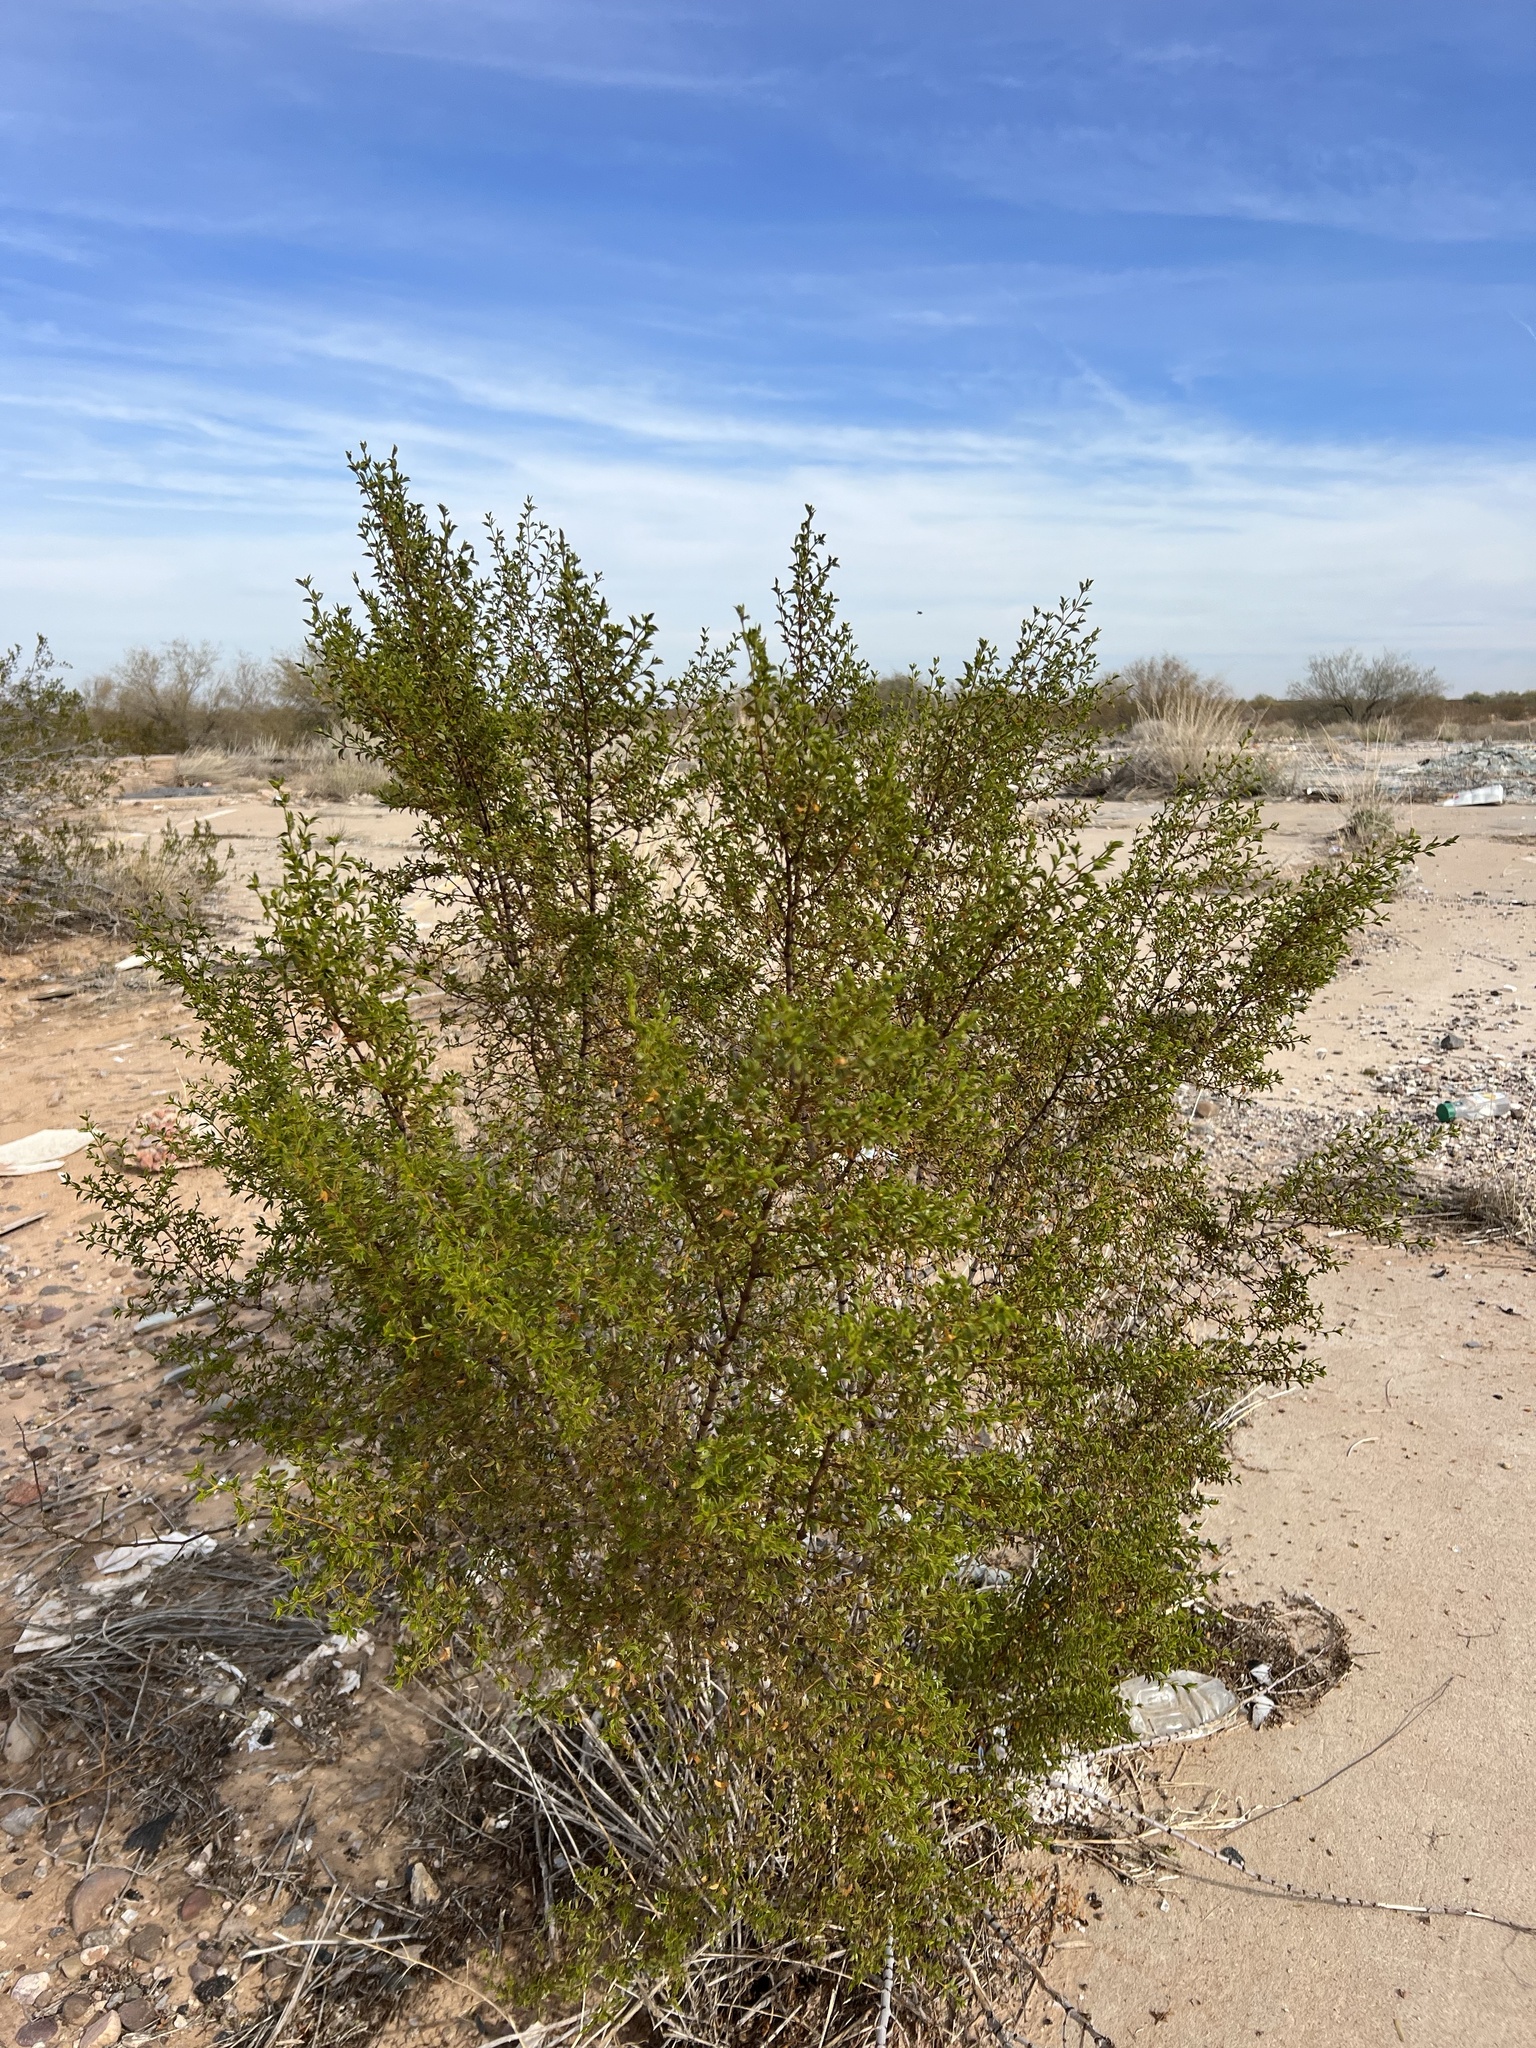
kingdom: Plantae
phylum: Tracheophyta
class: Magnoliopsida
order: Zygophyllales
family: Zygophyllaceae
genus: Larrea
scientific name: Larrea tridentata
